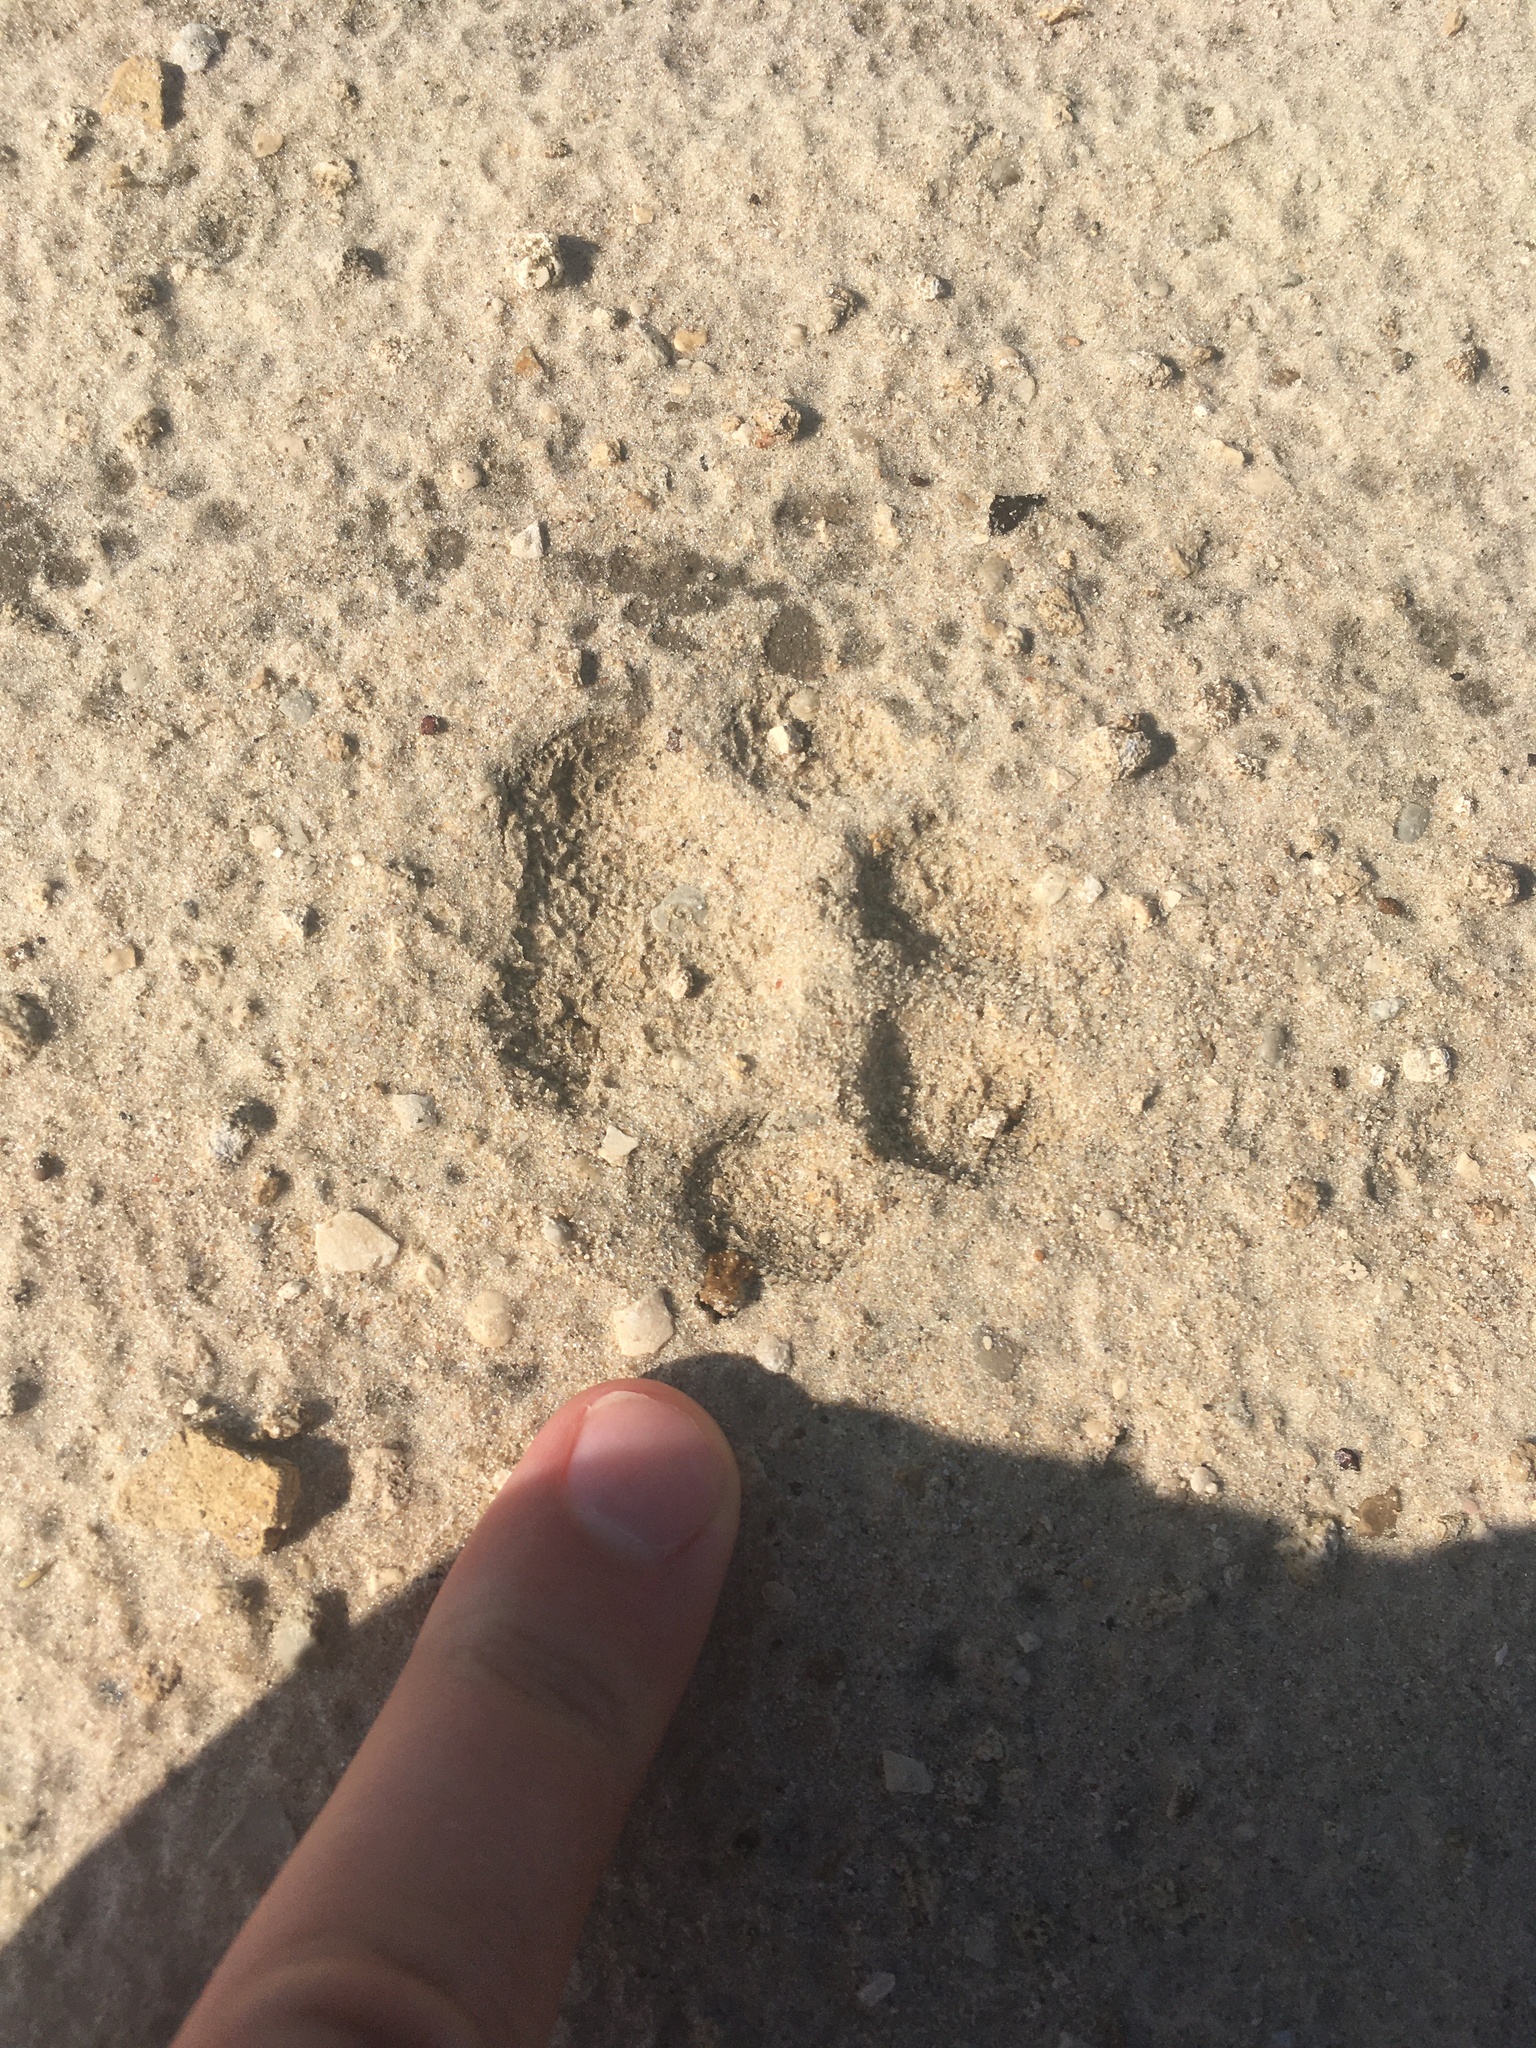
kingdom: Animalia
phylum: Chordata
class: Mammalia
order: Carnivora
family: Felidae
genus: Lynx
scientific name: Lynx rufus
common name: Bobcat
